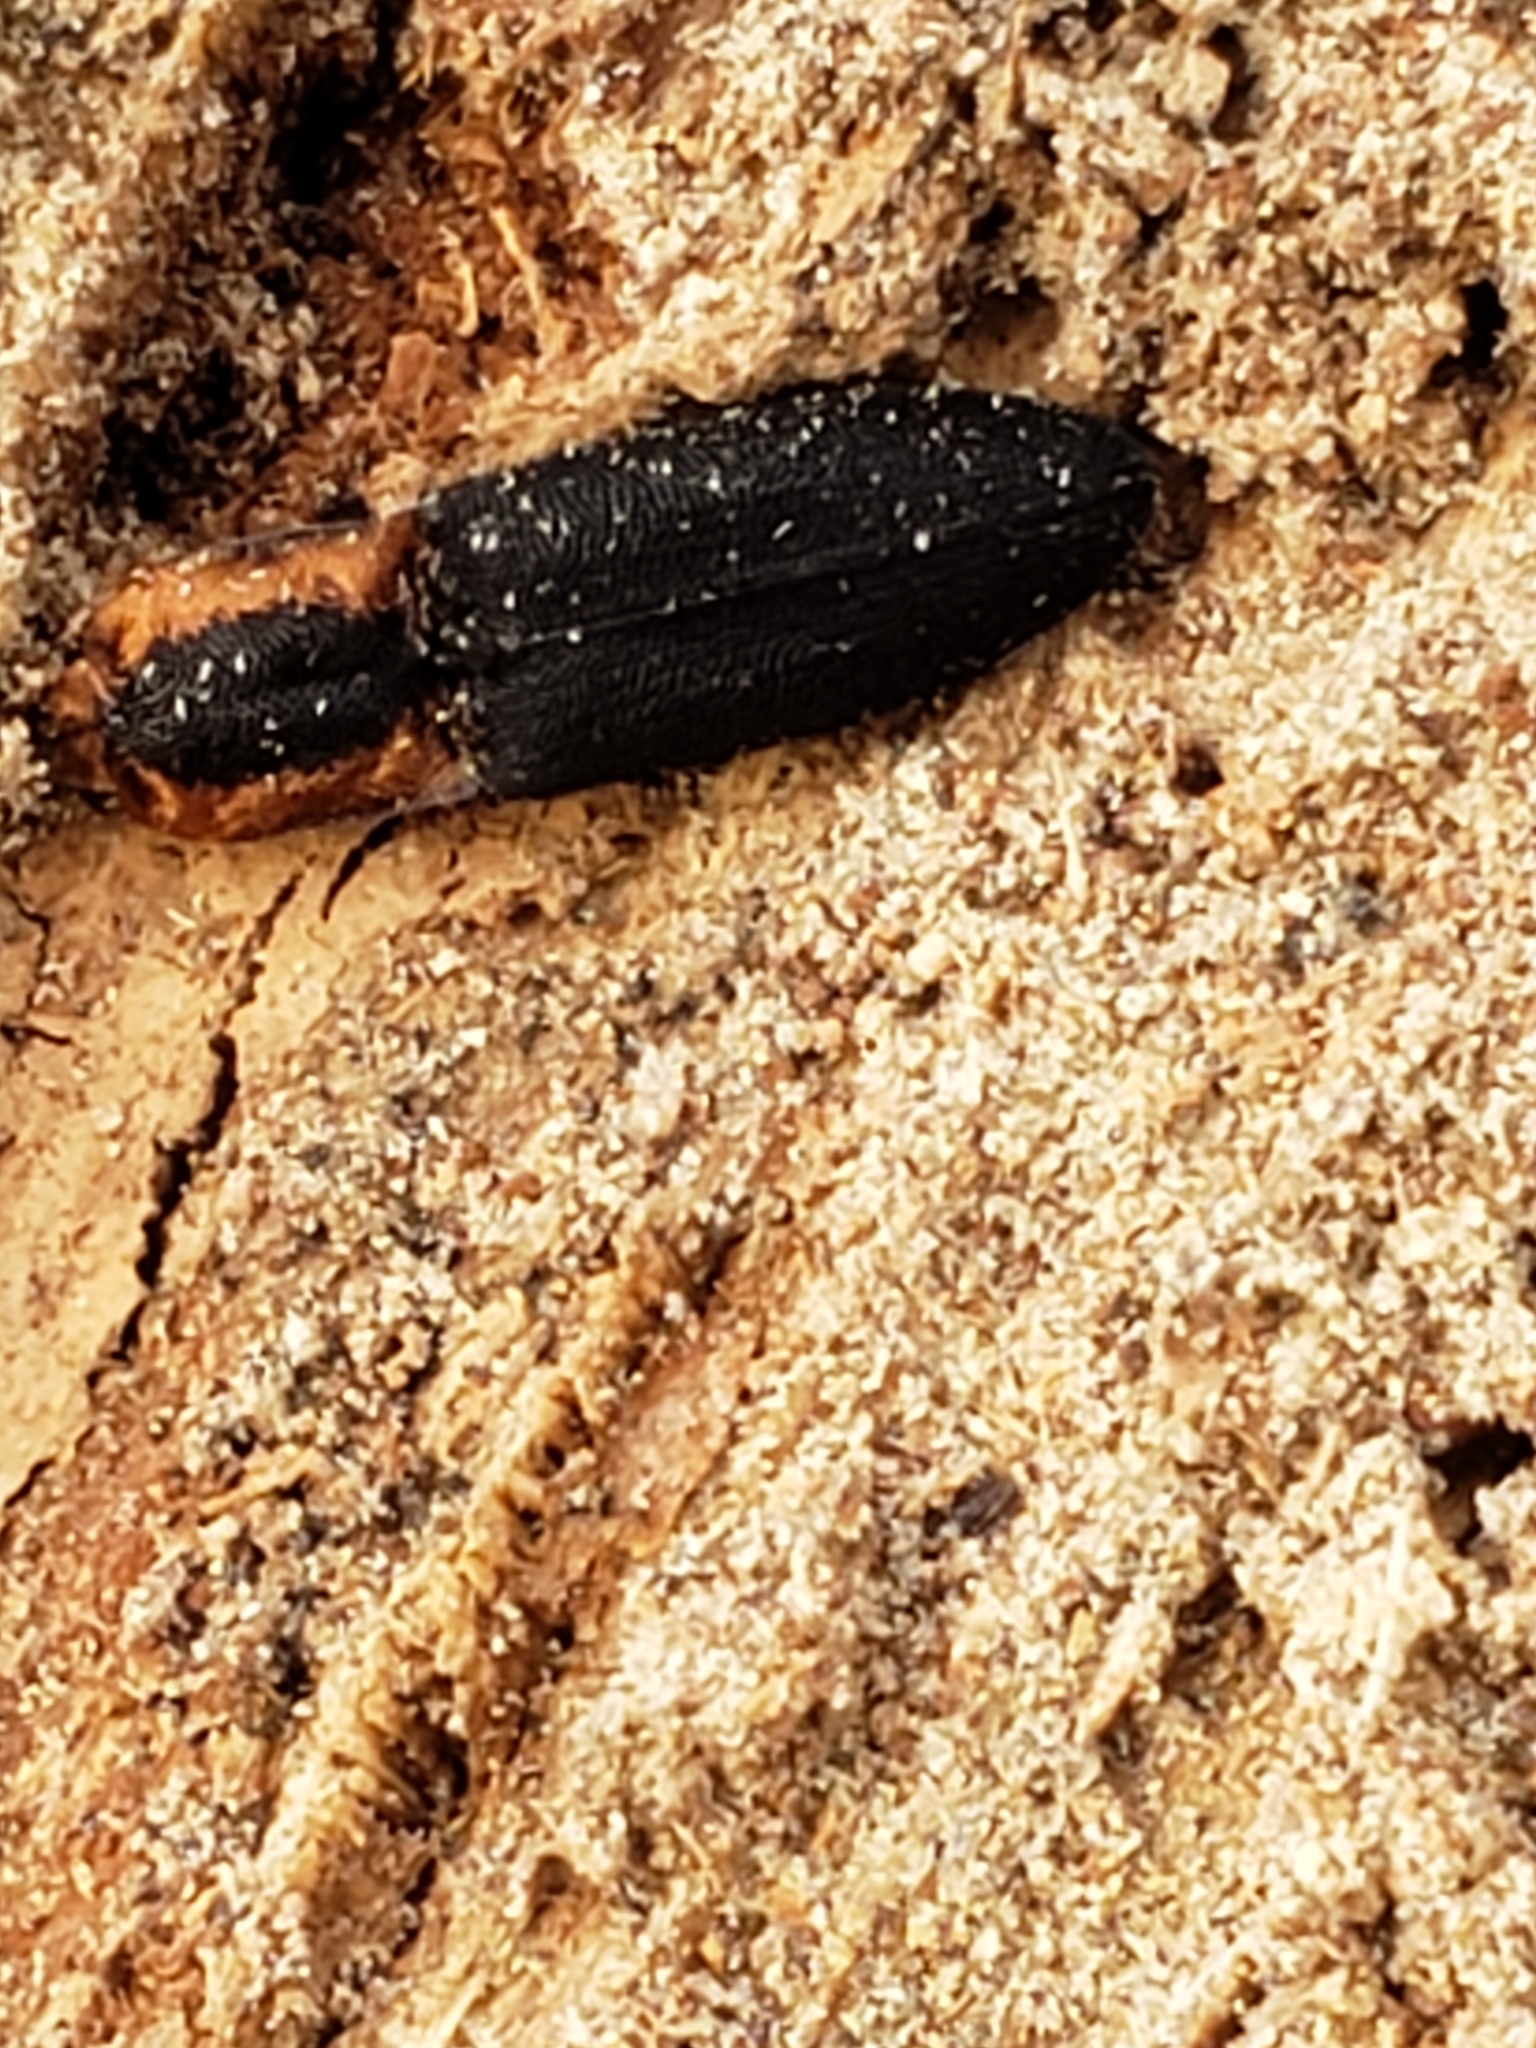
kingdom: Animalia
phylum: Arthropoda
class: Insecta
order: Coleoptera
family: Elateridae
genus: Lacon
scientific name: Lacon discoideus
